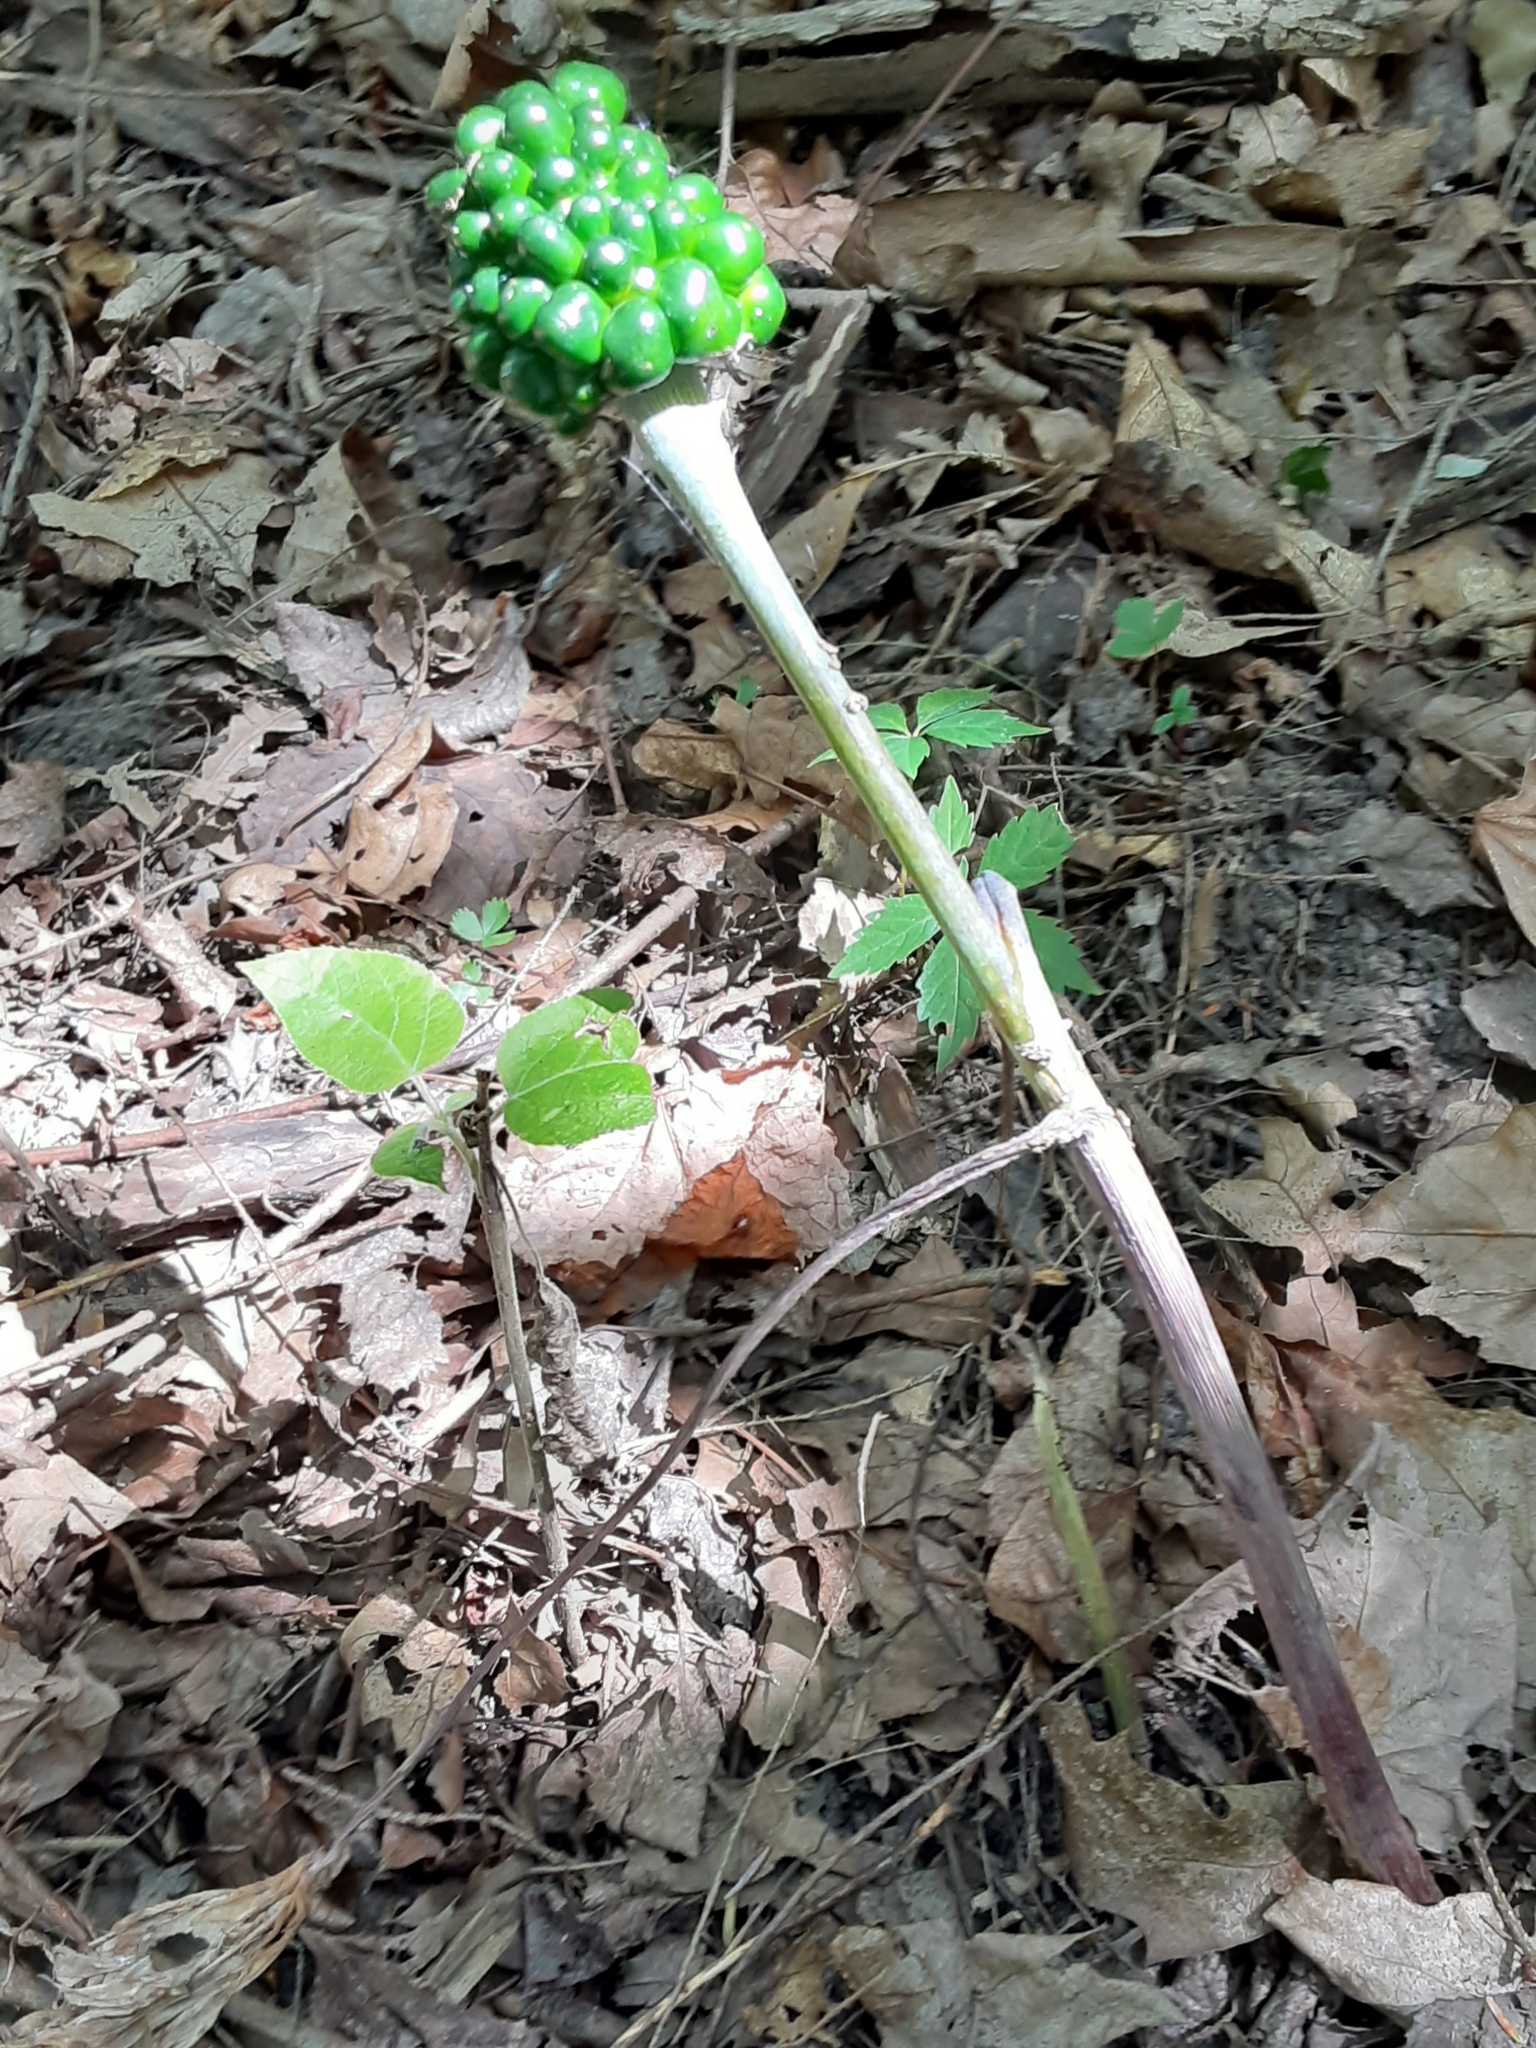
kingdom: Plantae
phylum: Tracheophyta
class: Liliopsida
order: Alismatales
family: Araceae
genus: Arisaema
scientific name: Arisaema triphyllum
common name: Jack-in-the-pulpit
